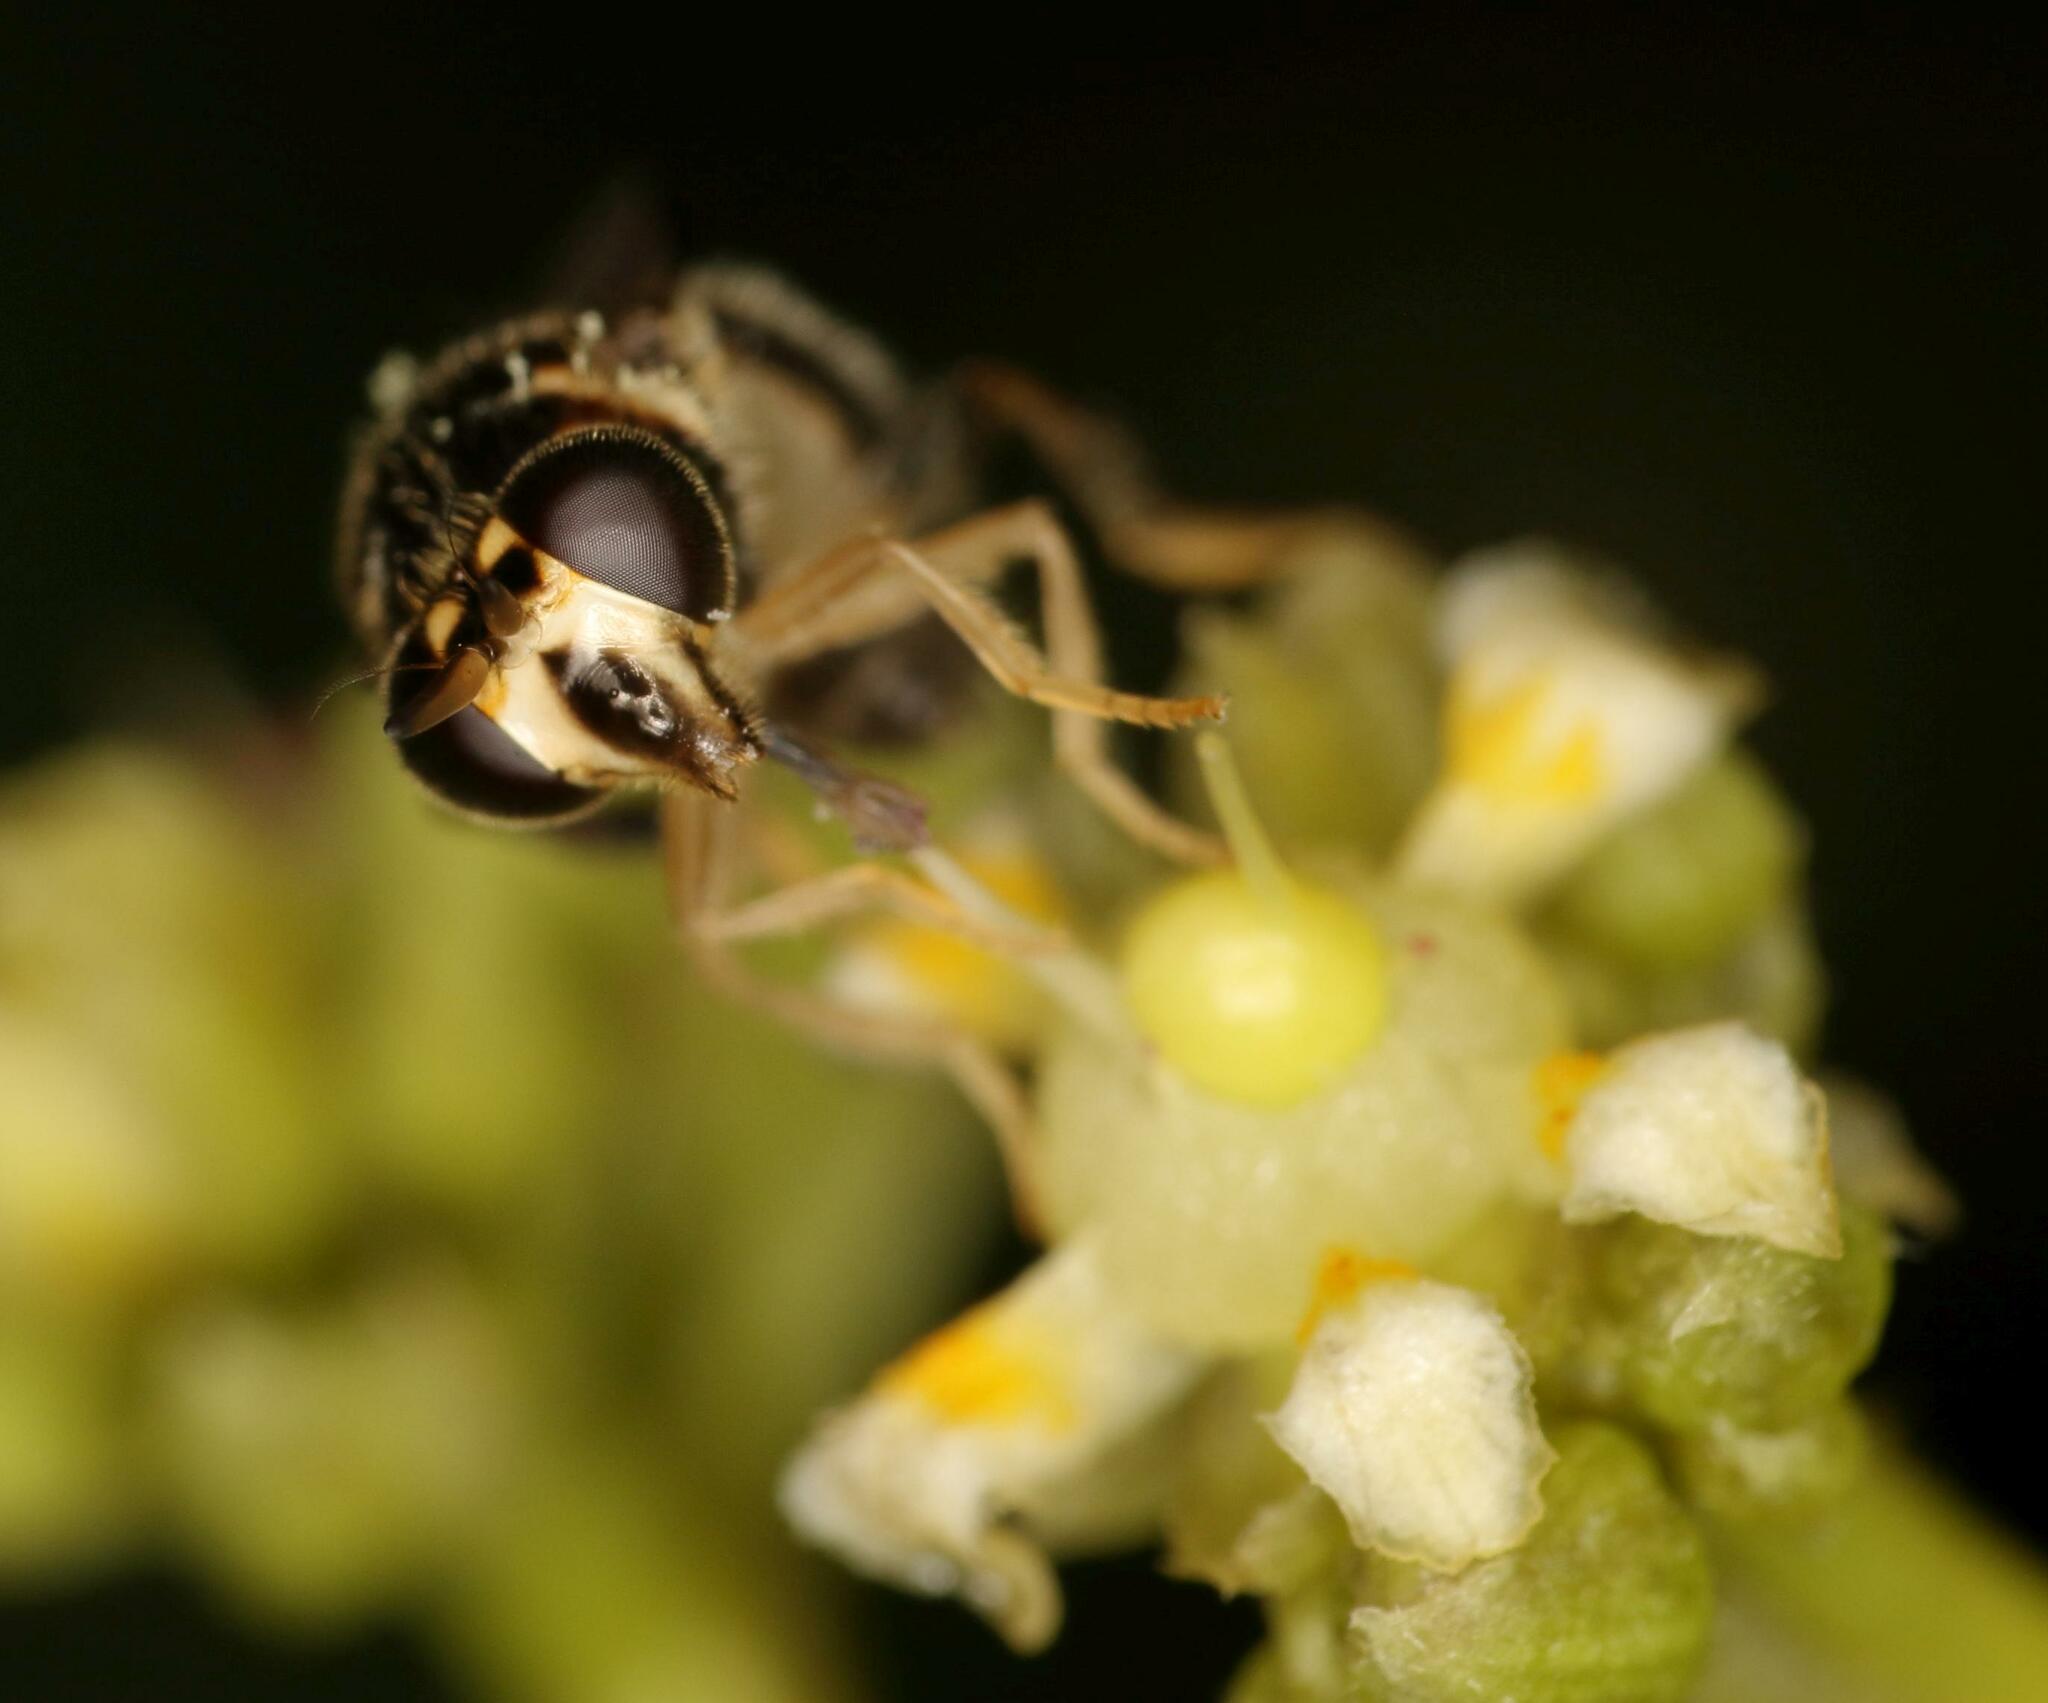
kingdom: Animalia
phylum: Arthropoda
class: Insecta
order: Diptera
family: Syrphidae
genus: Graptomyza
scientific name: Graptomyza signata
